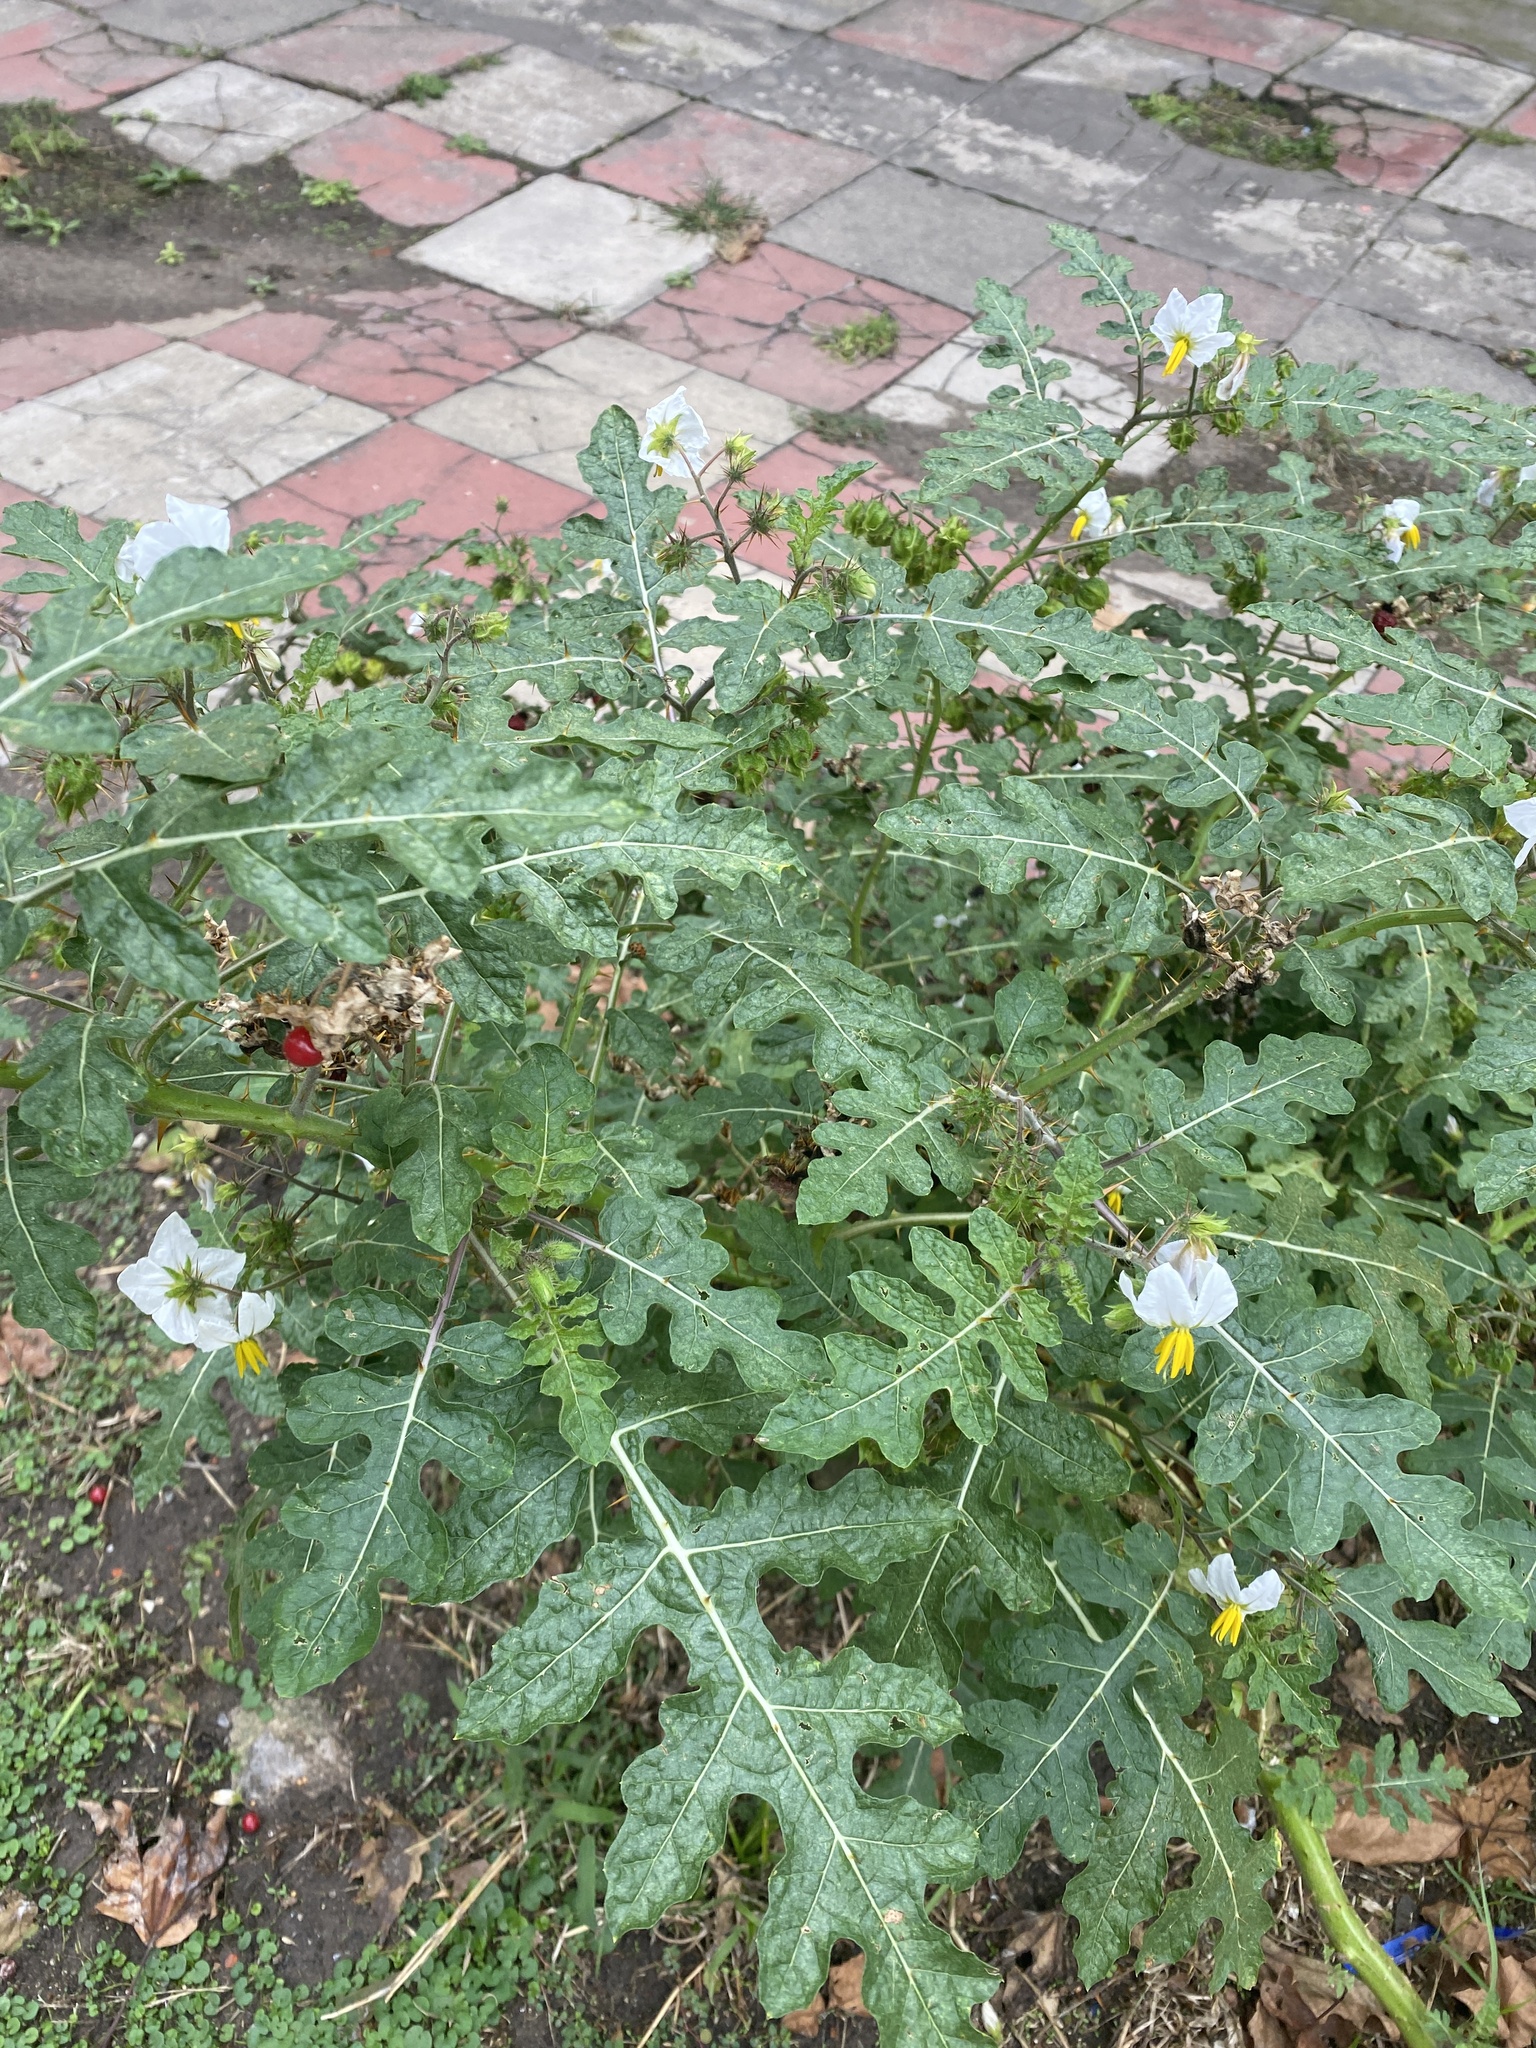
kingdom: Plantae
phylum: Tracheophyta
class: Magnoliopsida
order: Solanales
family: Solanaceae
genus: Solanum
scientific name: Solanum sisymbriifolium
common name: Red buffalo-bur
